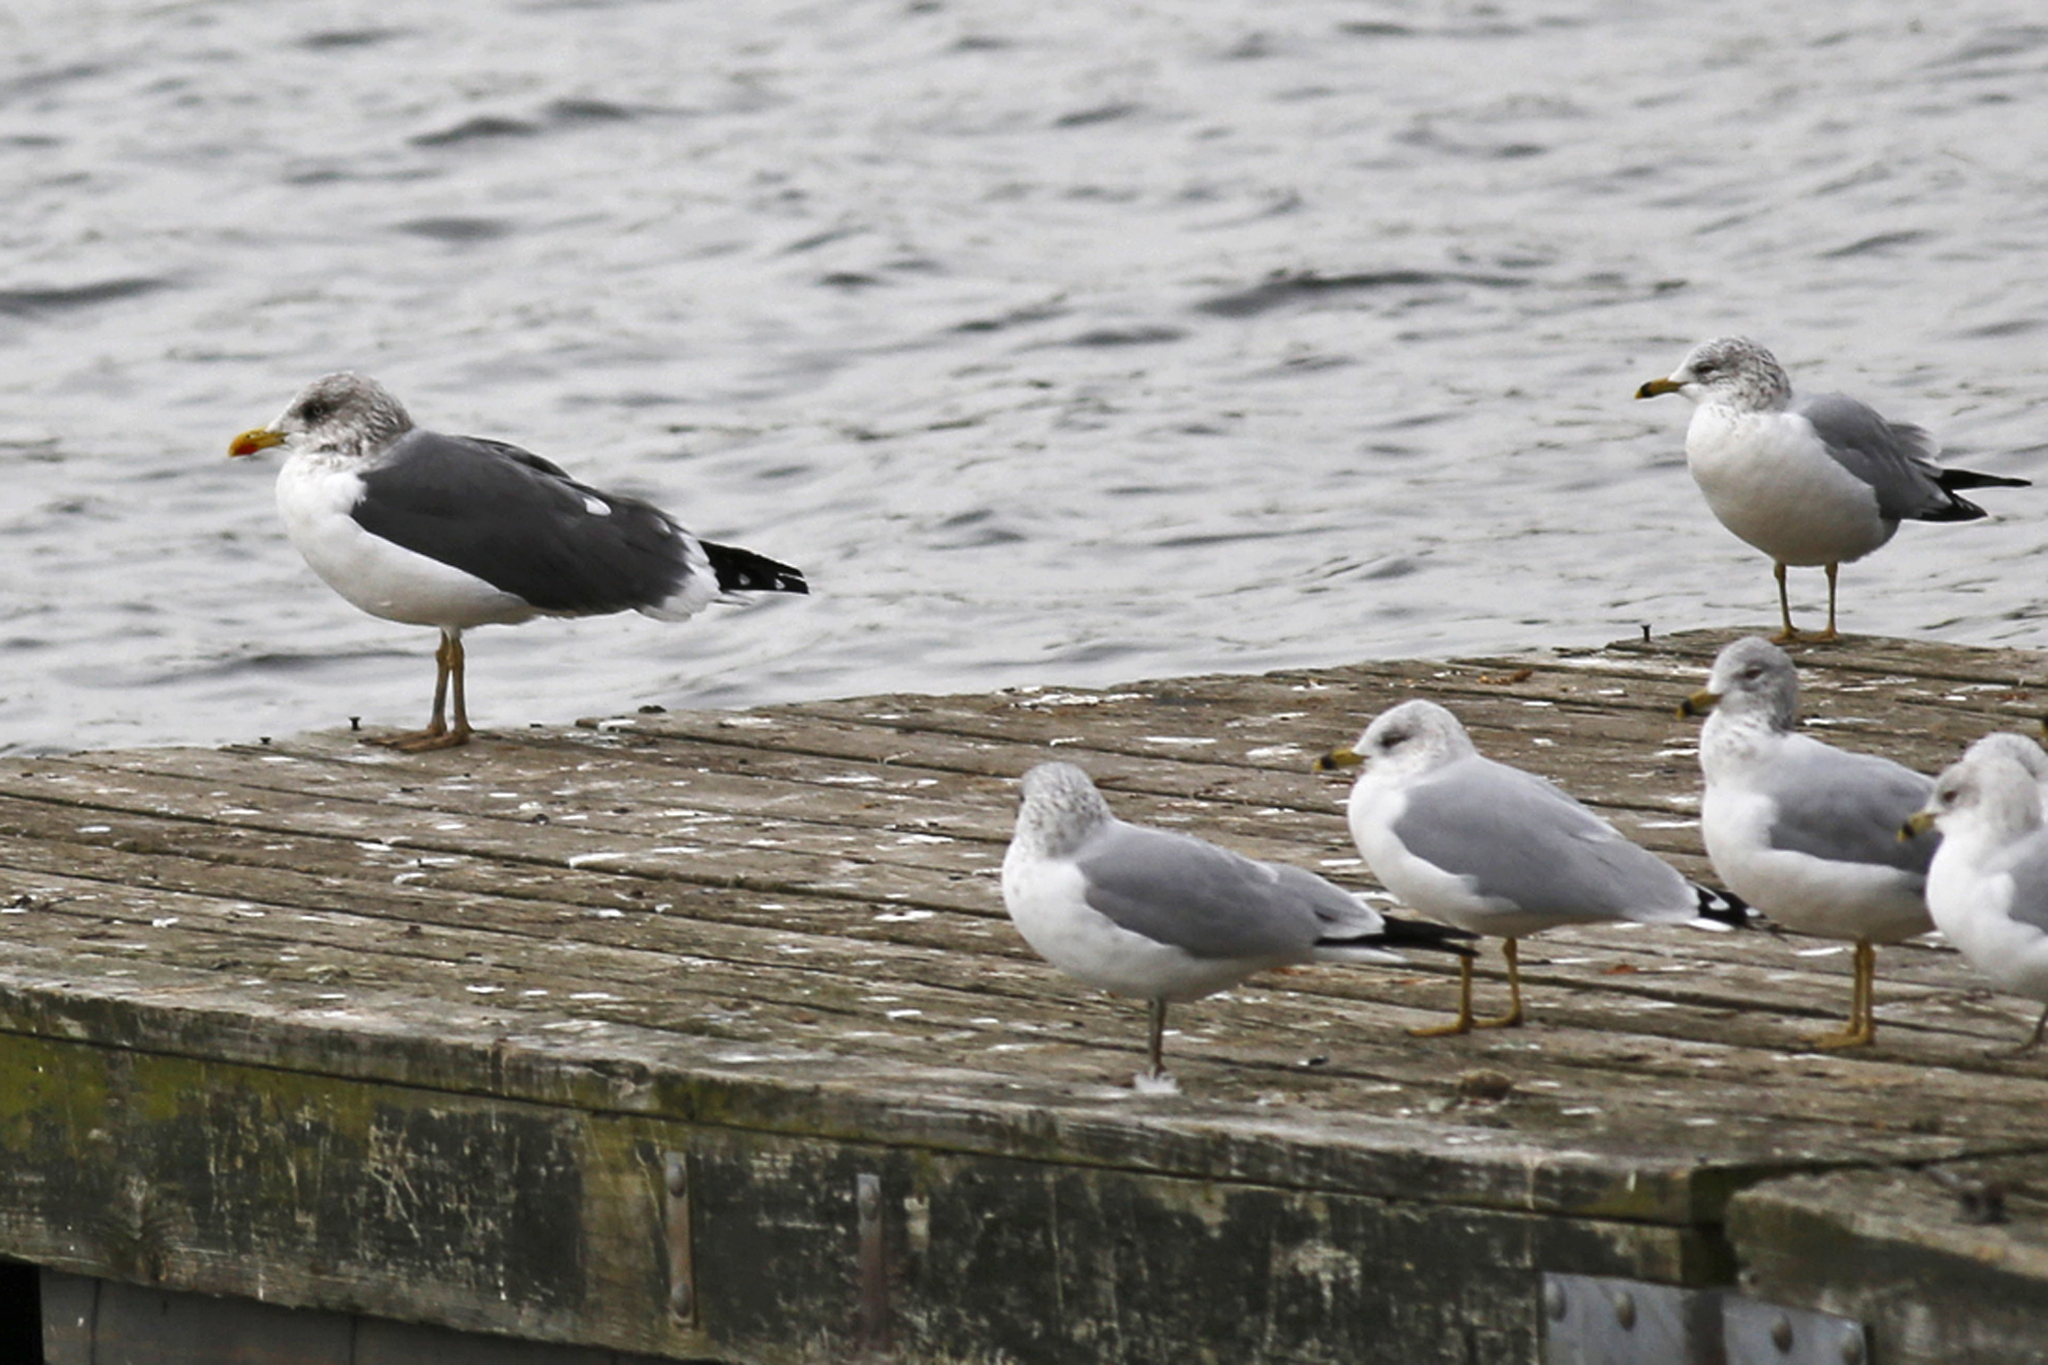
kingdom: Animalia
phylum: Chordata
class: Aves
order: Charadriiformes
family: Laridae
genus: Larus
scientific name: Larus fuscus
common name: Lesser black-backed gull
